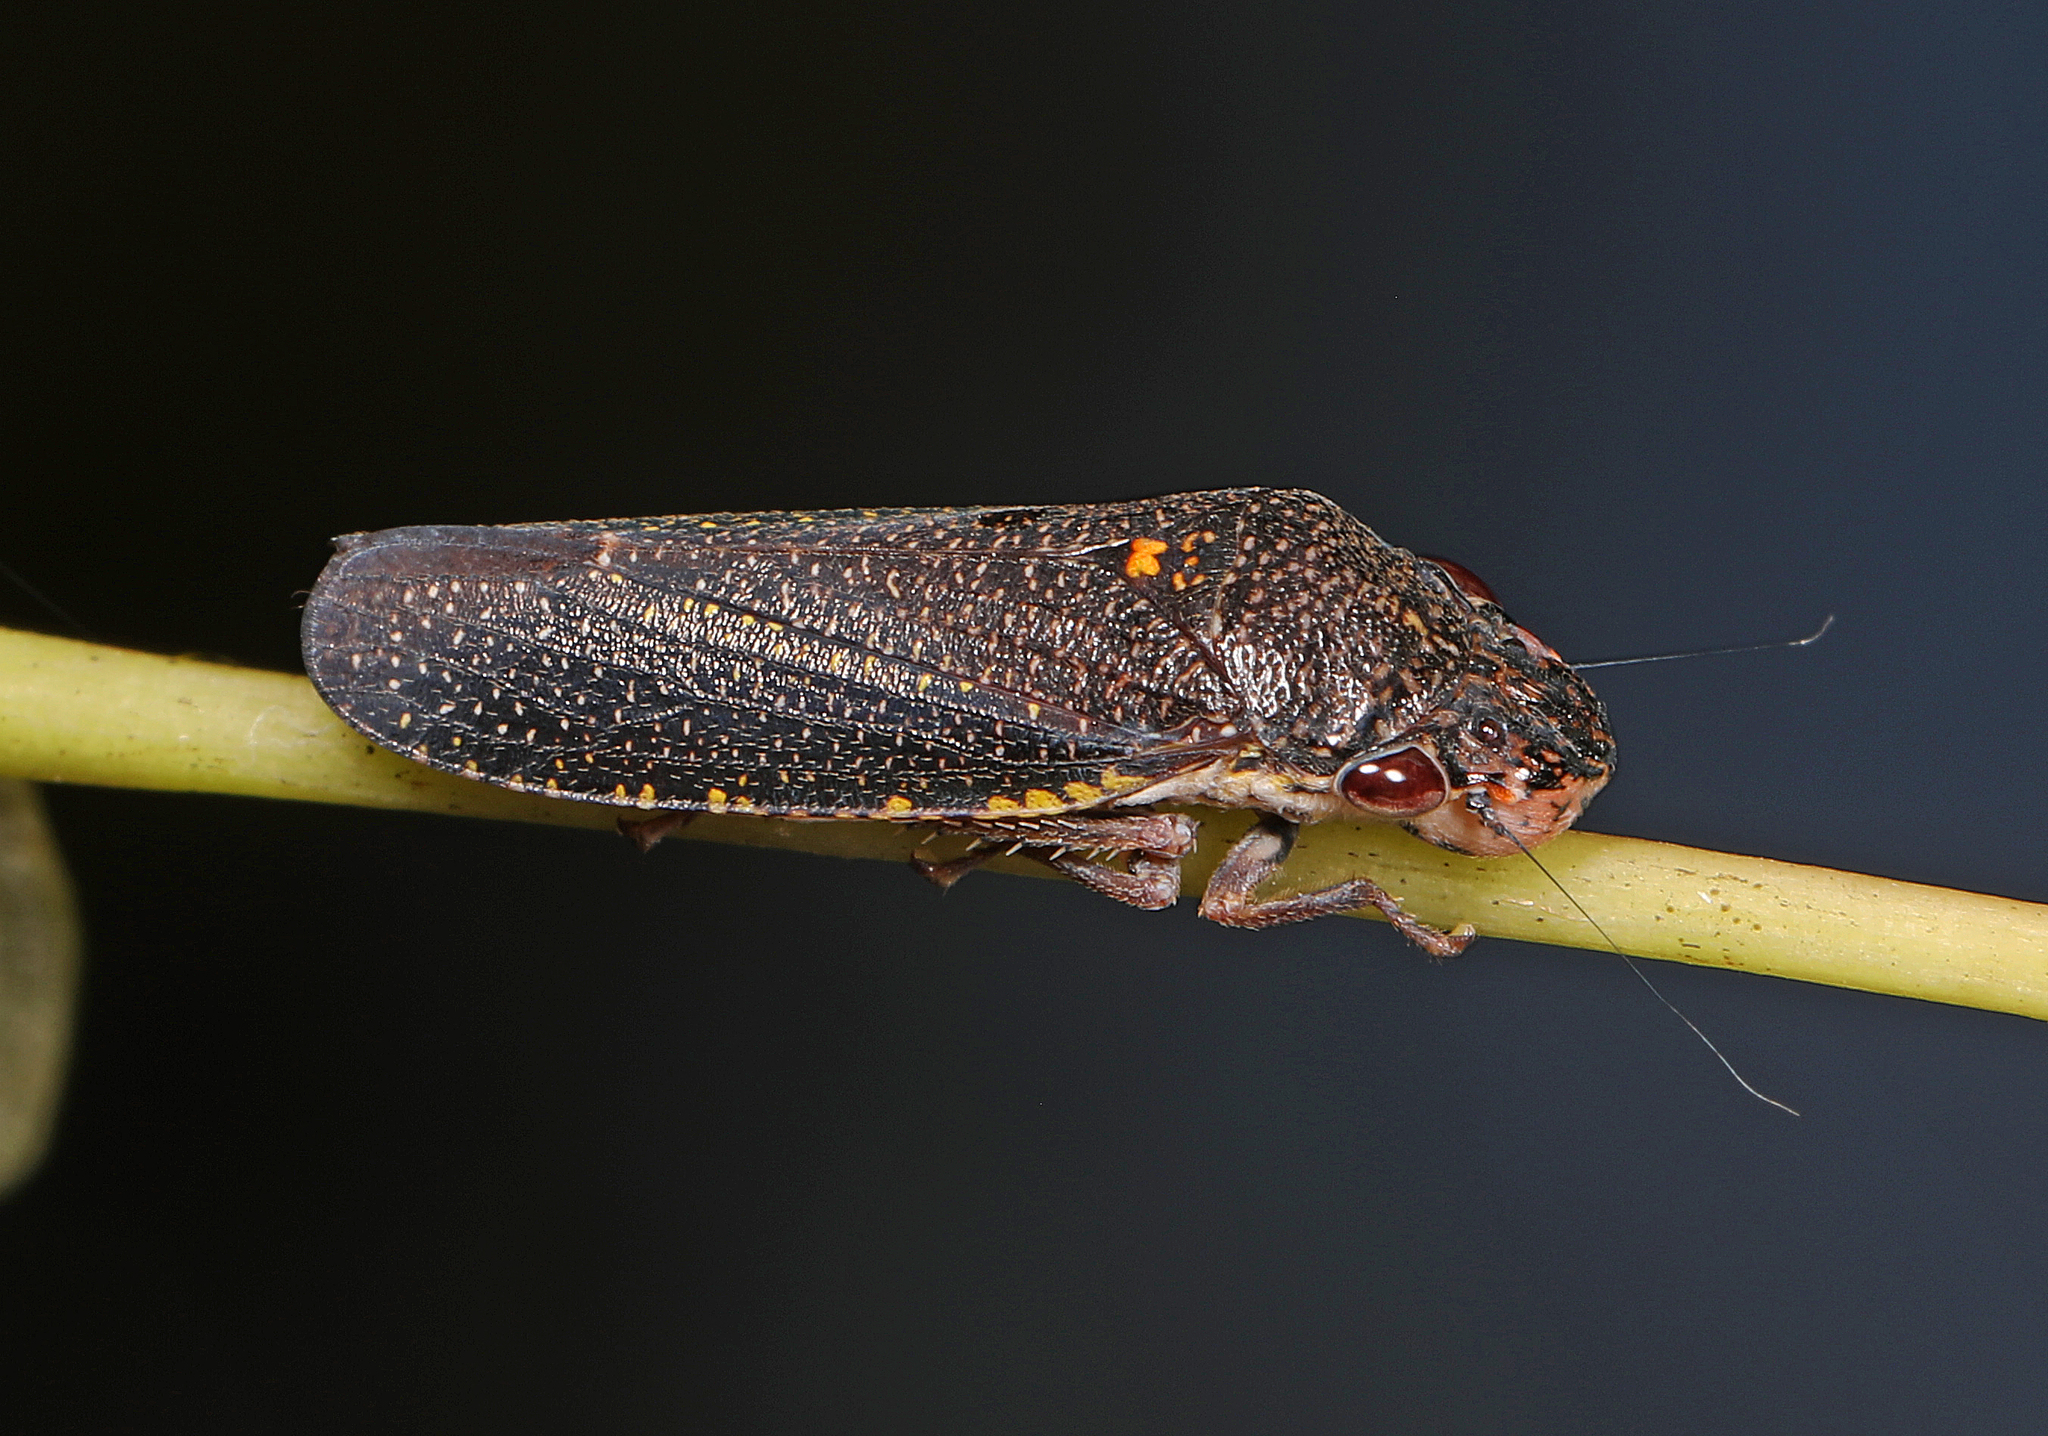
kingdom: Animalia
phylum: Arthropoda
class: Insecta
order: Hemiptera
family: Cicadellidae
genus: Paraulacizes
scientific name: Paraulacizes irrorata
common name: Speckled sharpshooter
